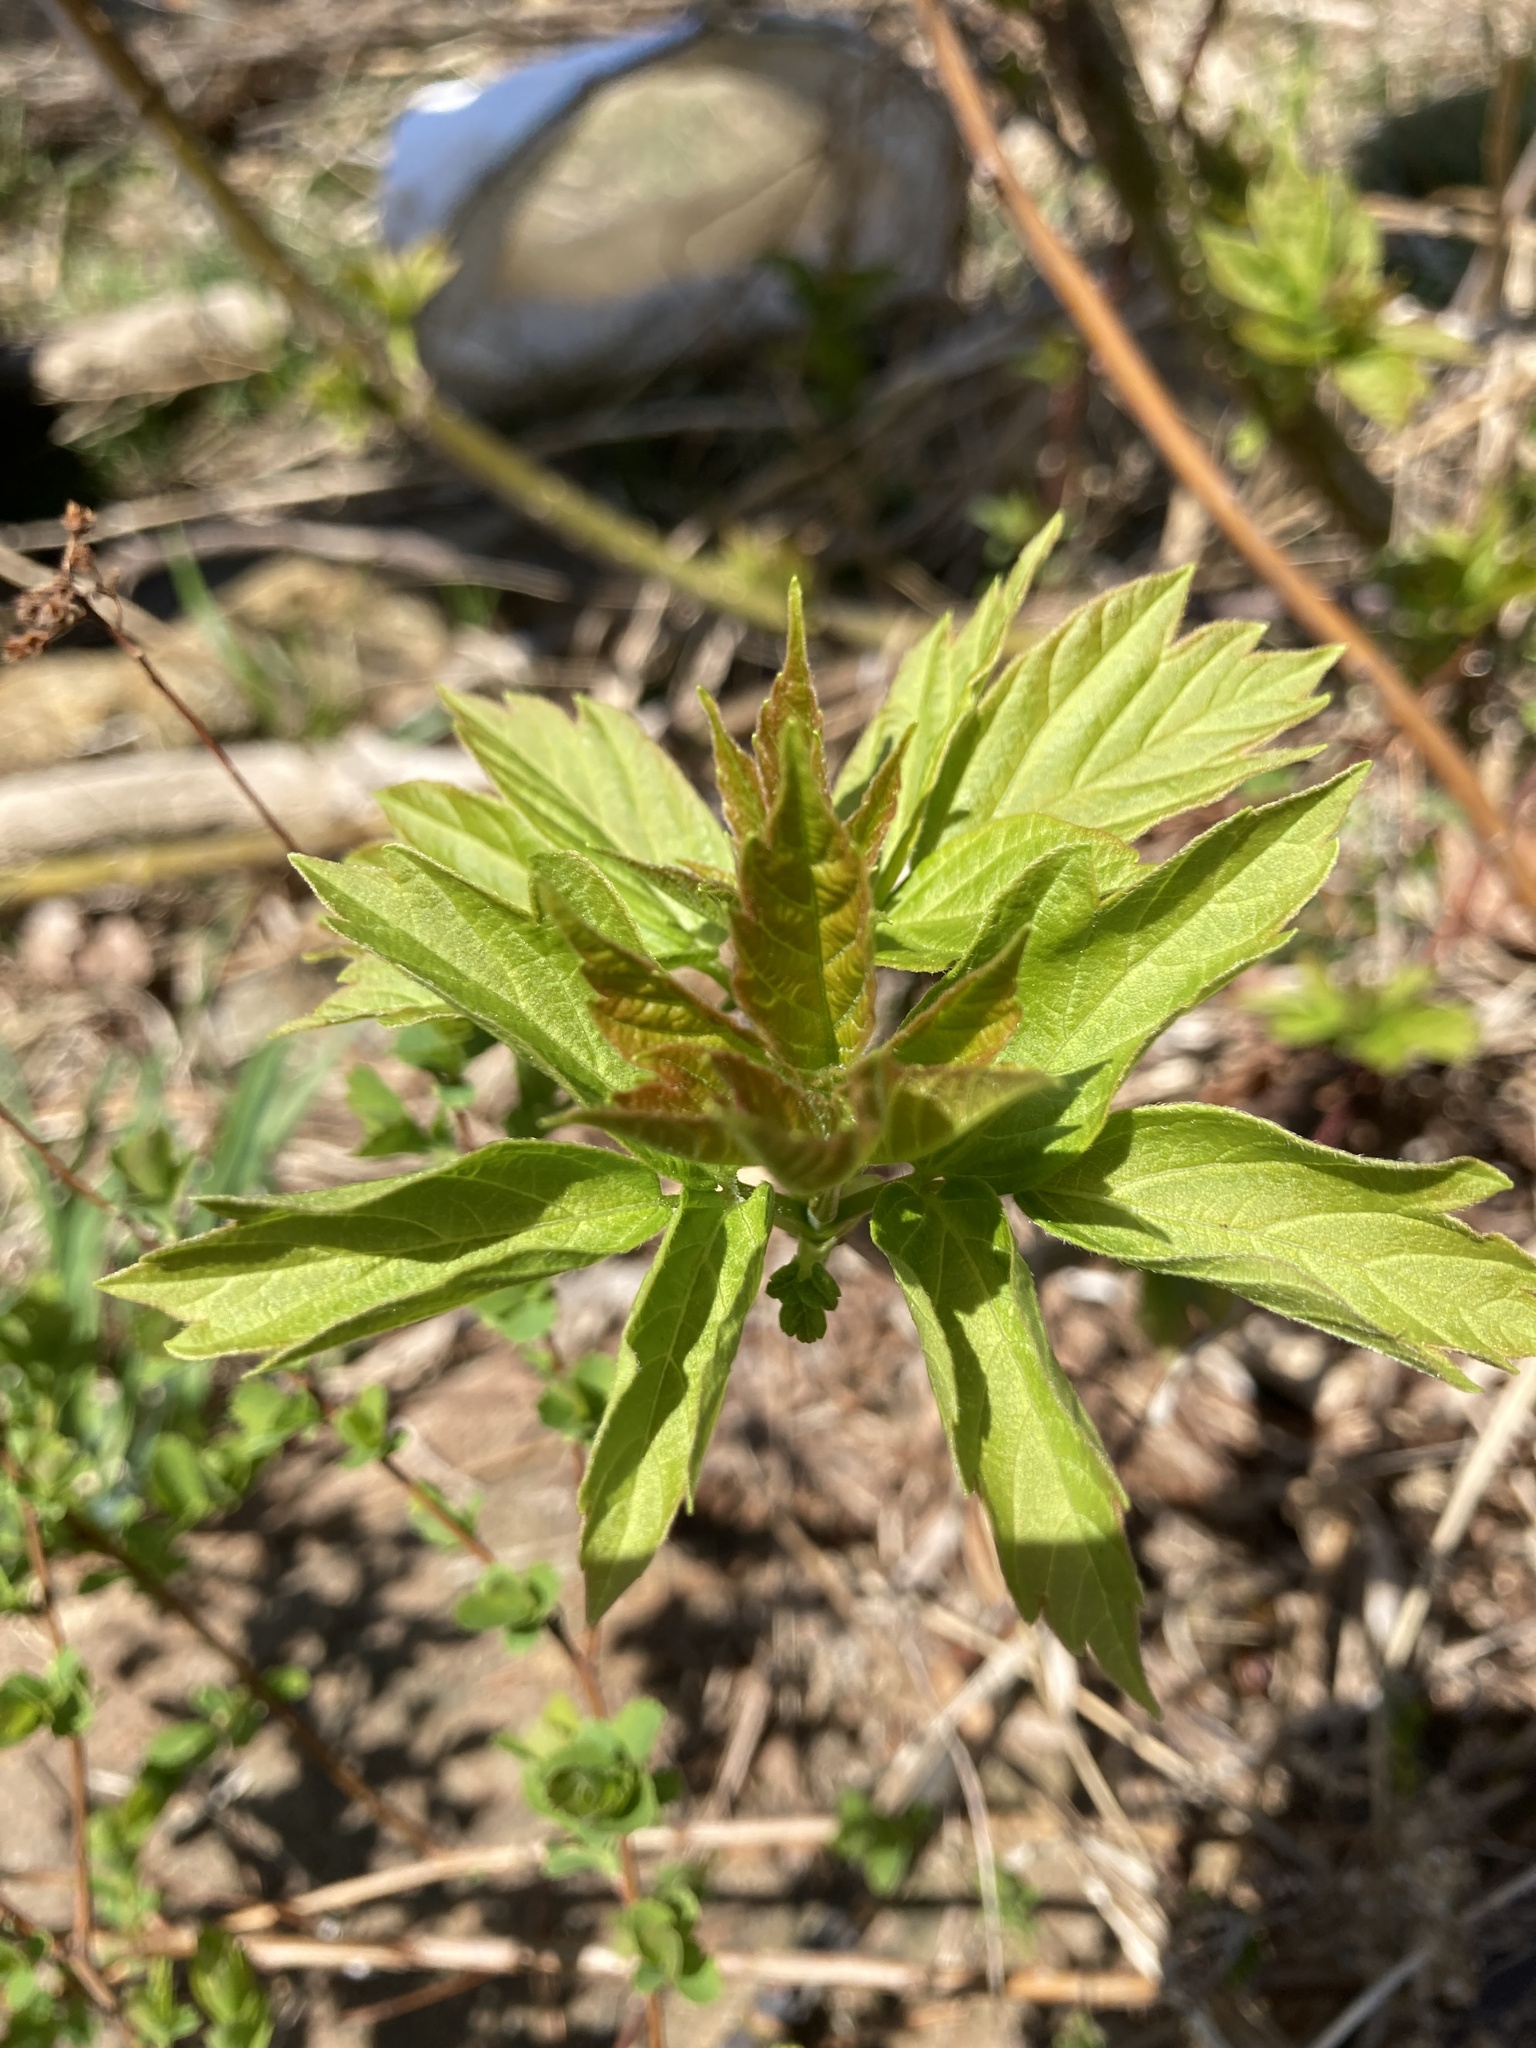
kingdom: Plantae
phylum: Tracheophyta
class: Magnoliopsida
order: Sapindales
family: Sapindaceae
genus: Acer
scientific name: Acer negundo
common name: Ashleaf maple
